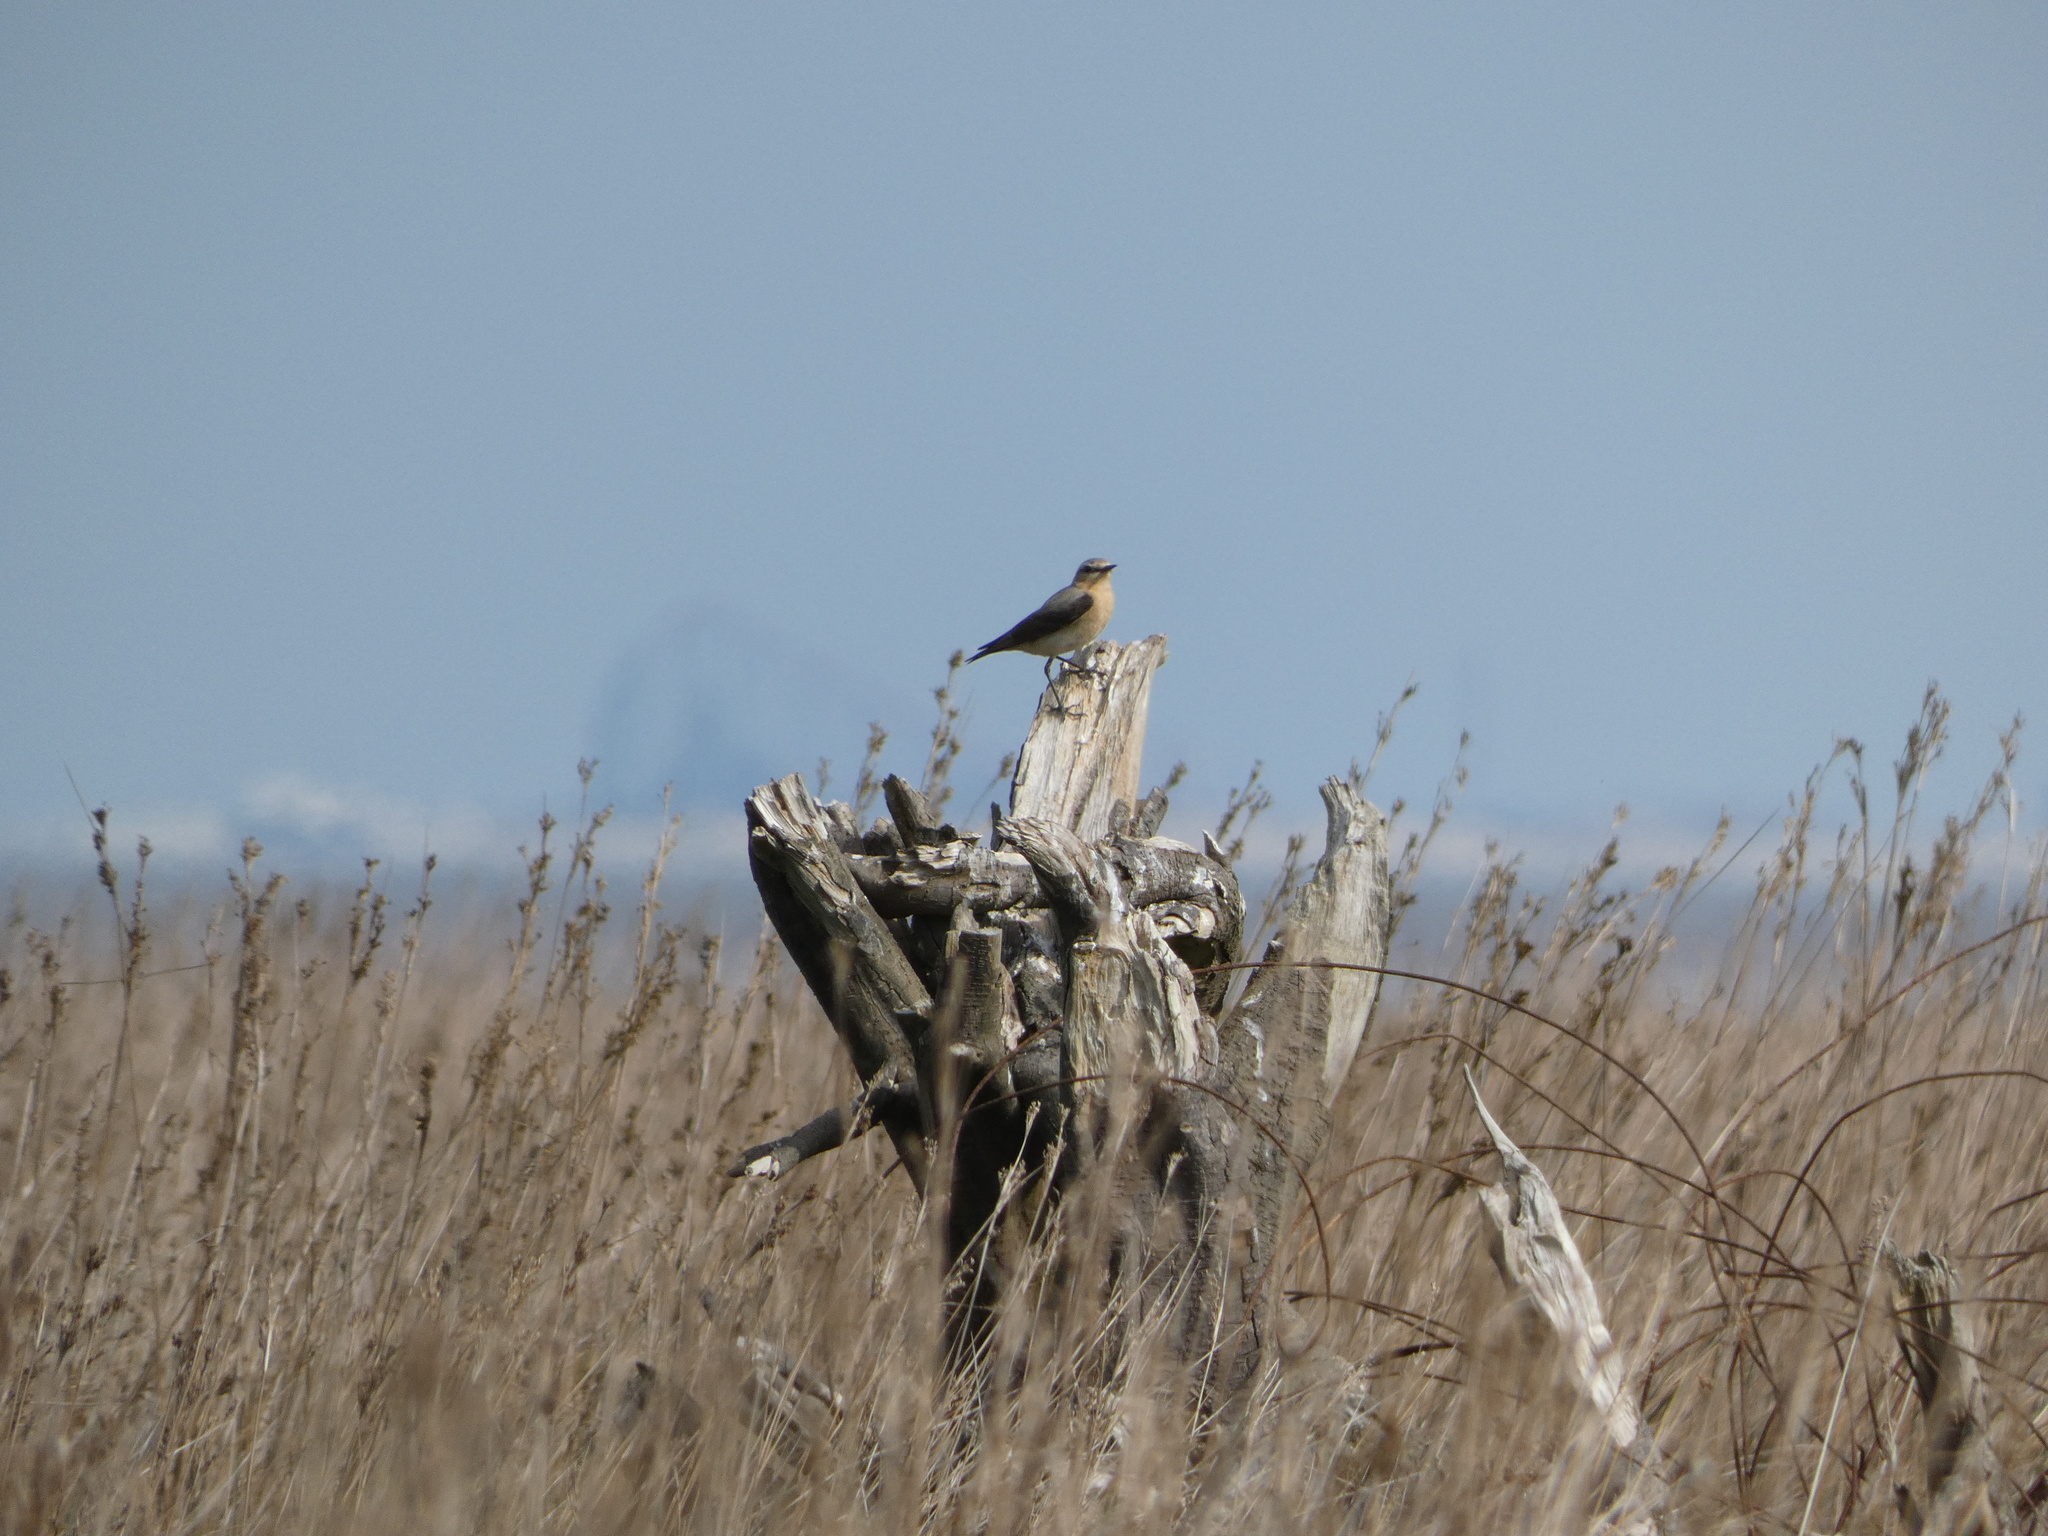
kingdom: Animalia
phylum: Chordata
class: Aves
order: Passeriformes
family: Muscicapidae
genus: Oenanthe
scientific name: Oenanthe oenanthe
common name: Northern wheatear
